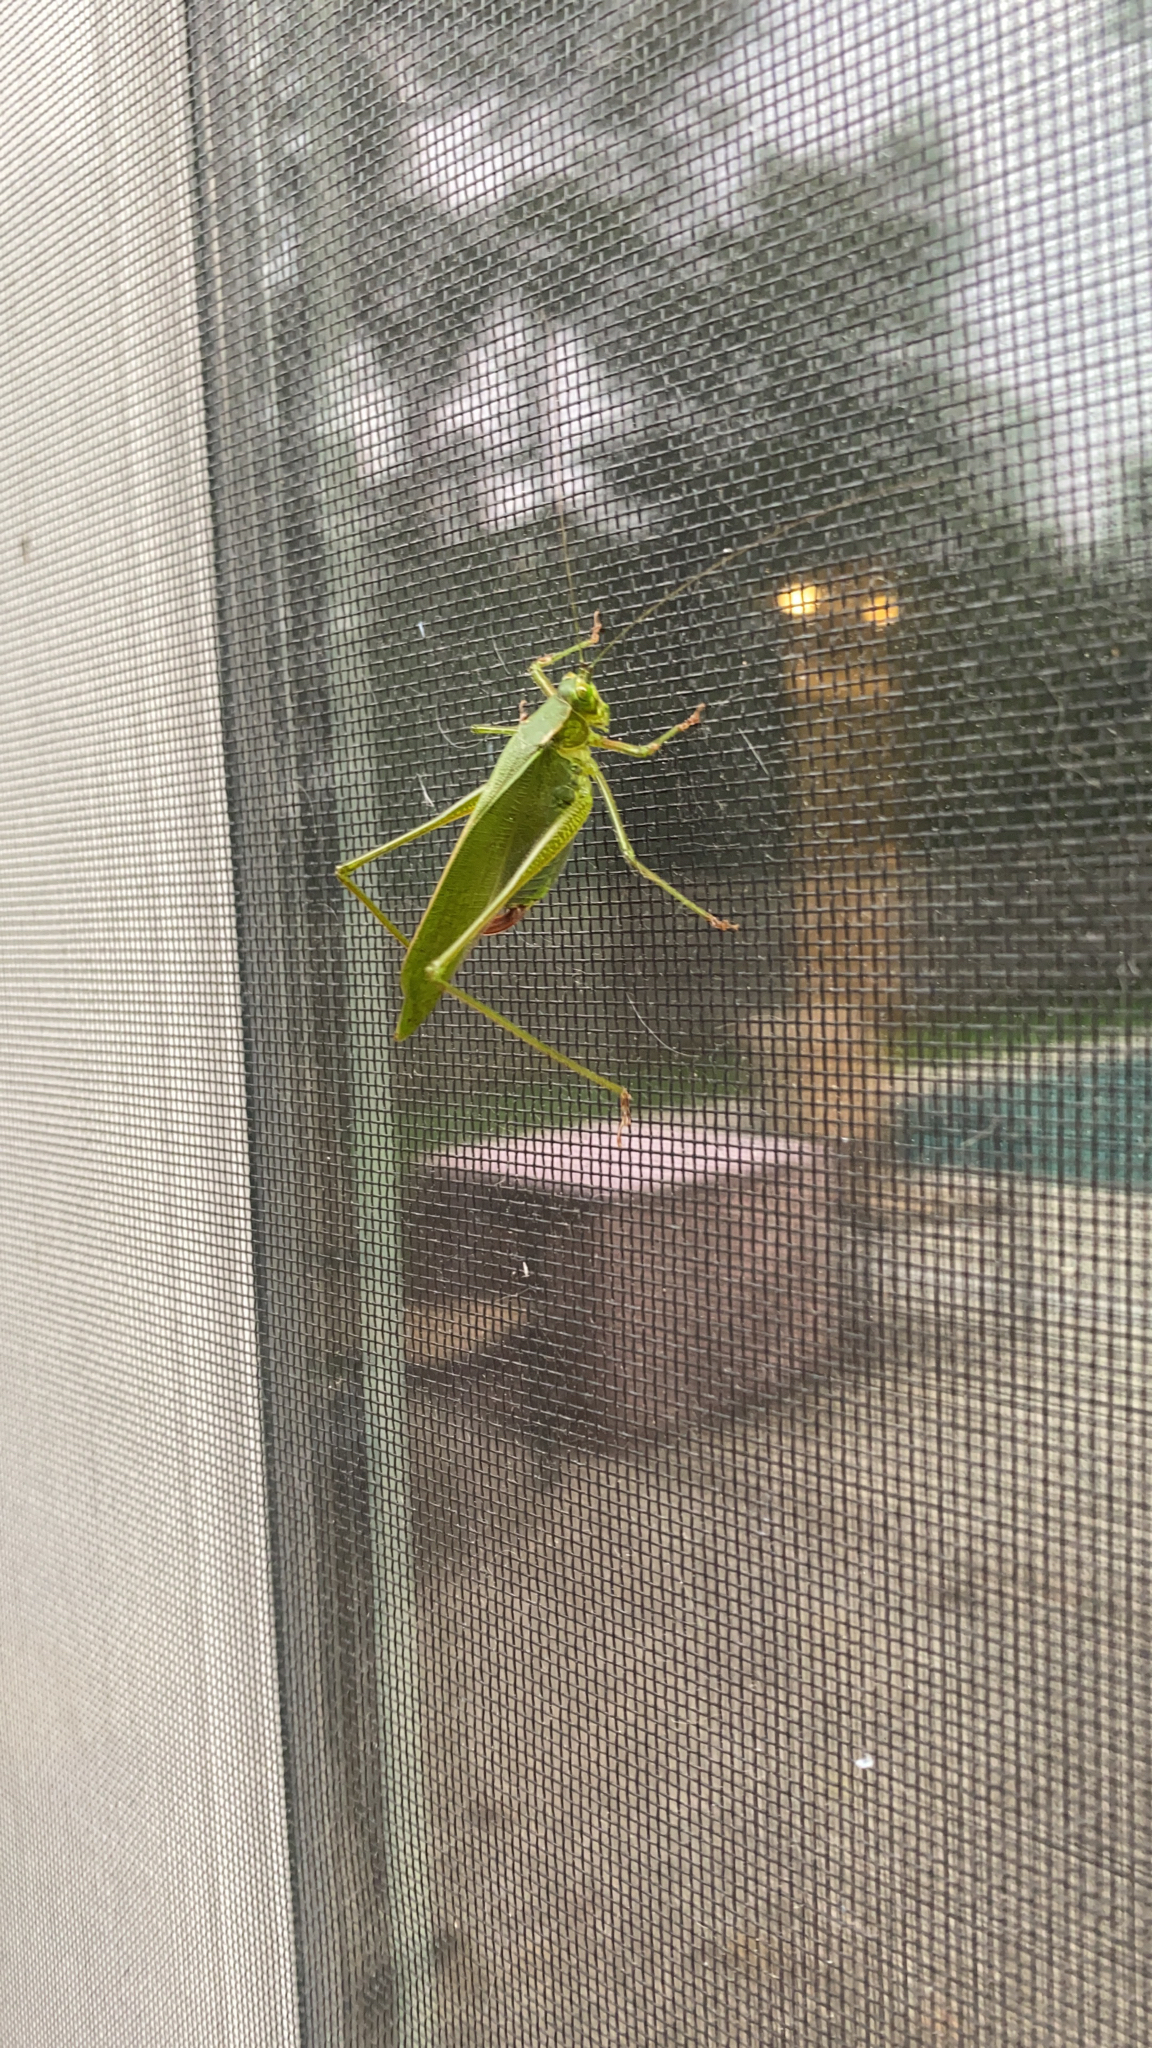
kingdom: Animalia
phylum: Arthropoda
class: Insecta
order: Orthoptera
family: Tettigoniidae
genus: Scudderia
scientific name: Scudderia furcata
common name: Fork-tailed bush katydid
